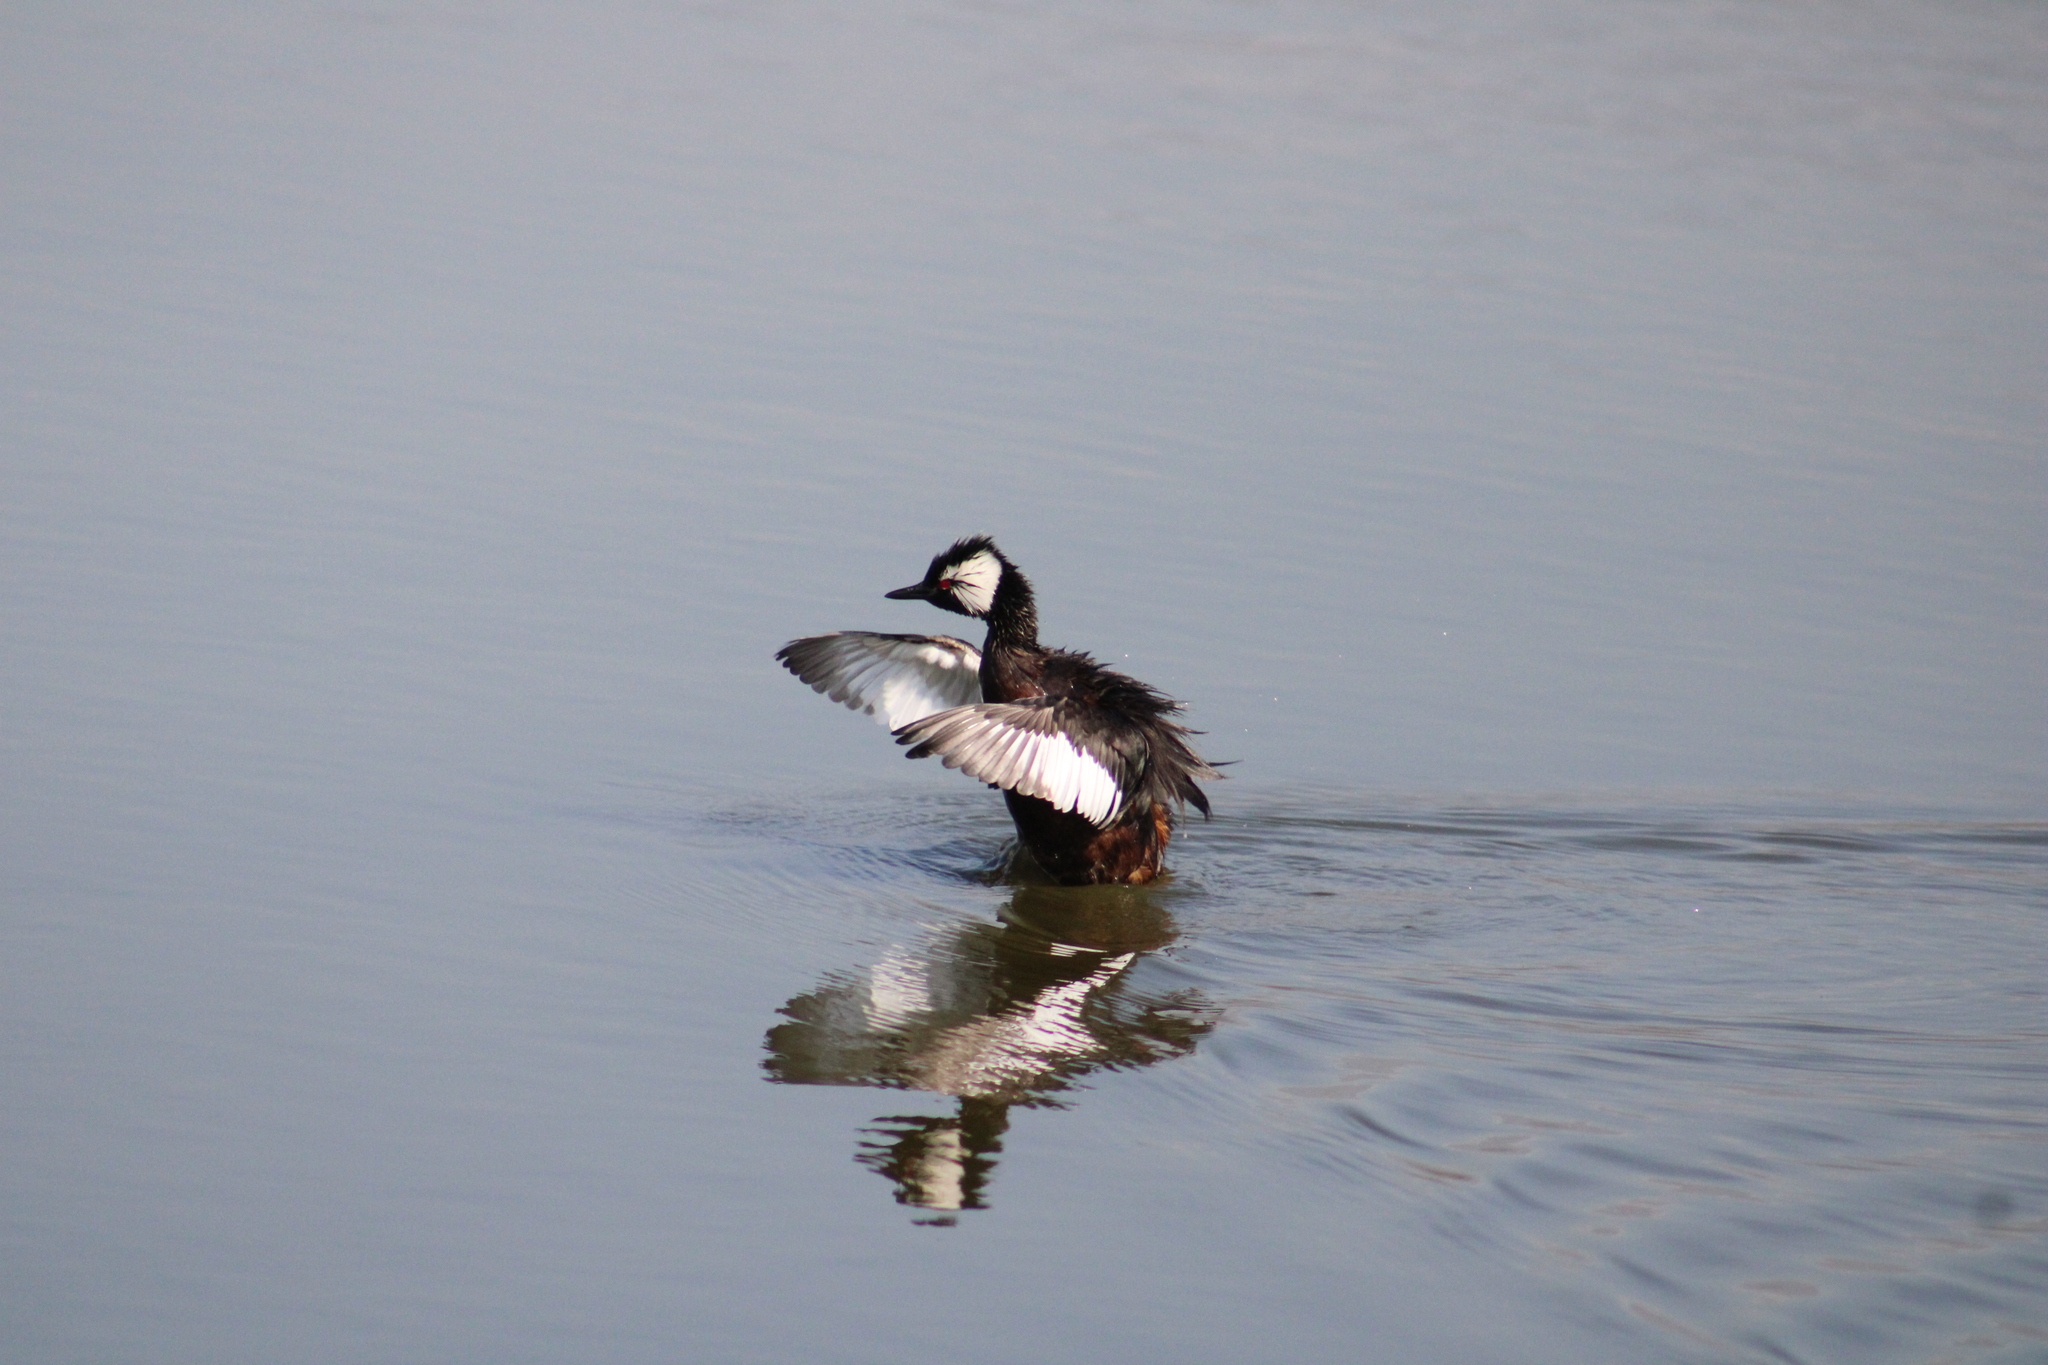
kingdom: Animalia
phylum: Chordata
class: Aves
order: Podicipediformes
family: Podicipedidae
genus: Rollandia
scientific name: Rollandia rolland
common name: White-tufted grebe
